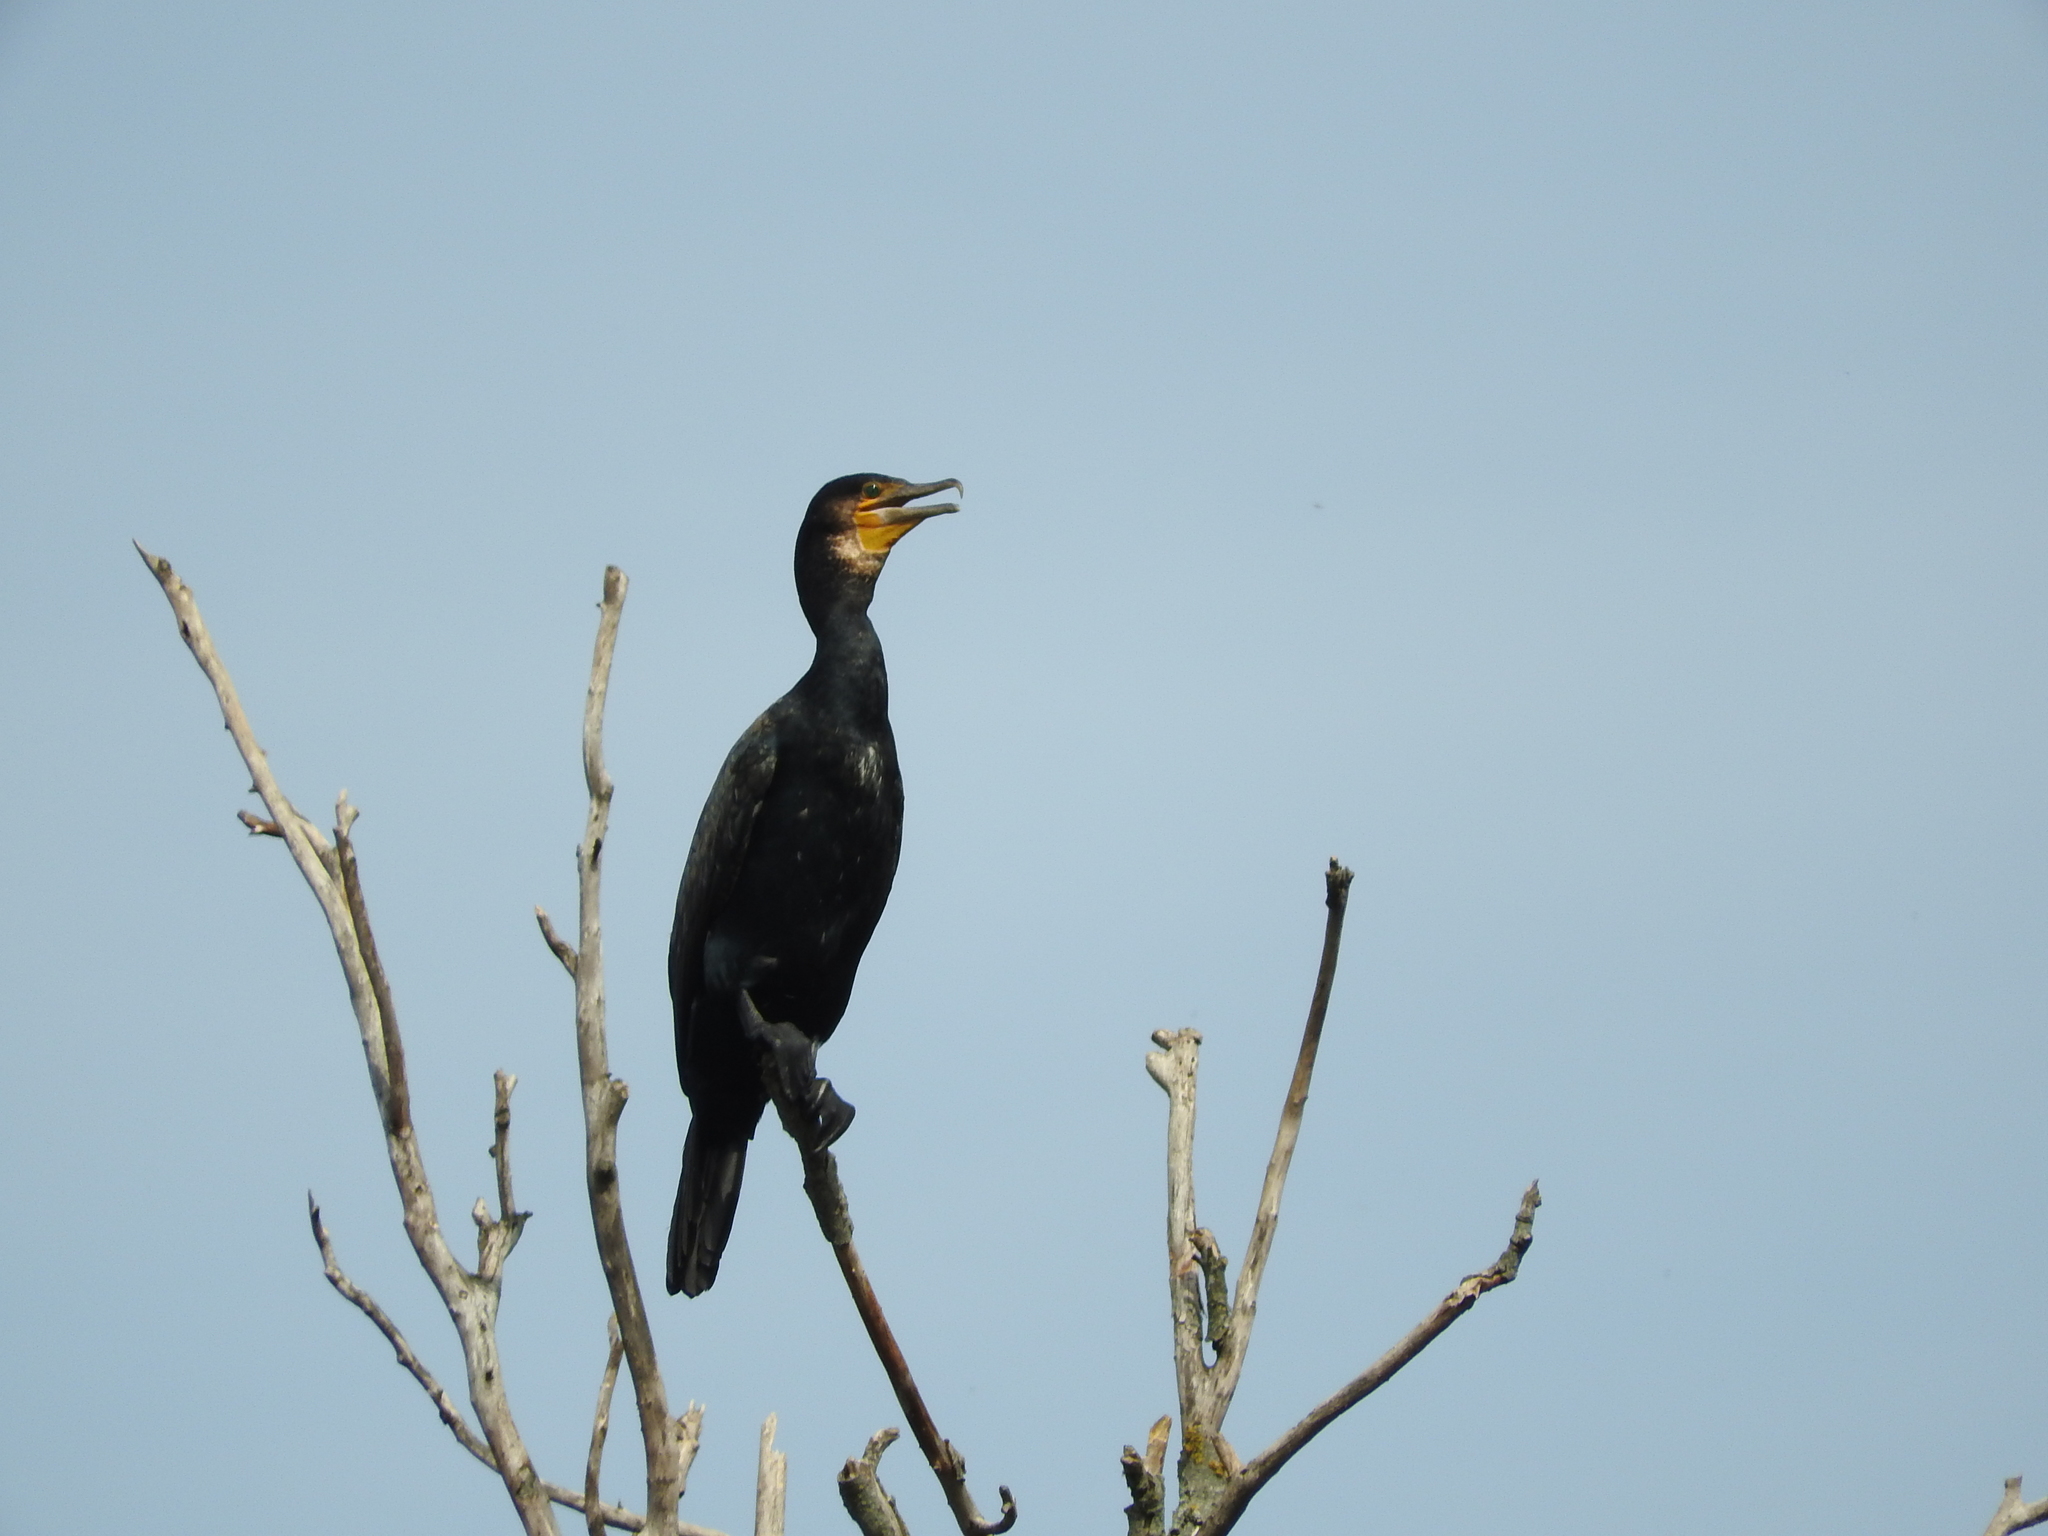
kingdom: Animalia
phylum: Chordata
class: Aves
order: Suliformes
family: Phalacrocoracidae
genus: Phalacrocorax
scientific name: Phalacrocorax carbo
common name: Great cormorant
